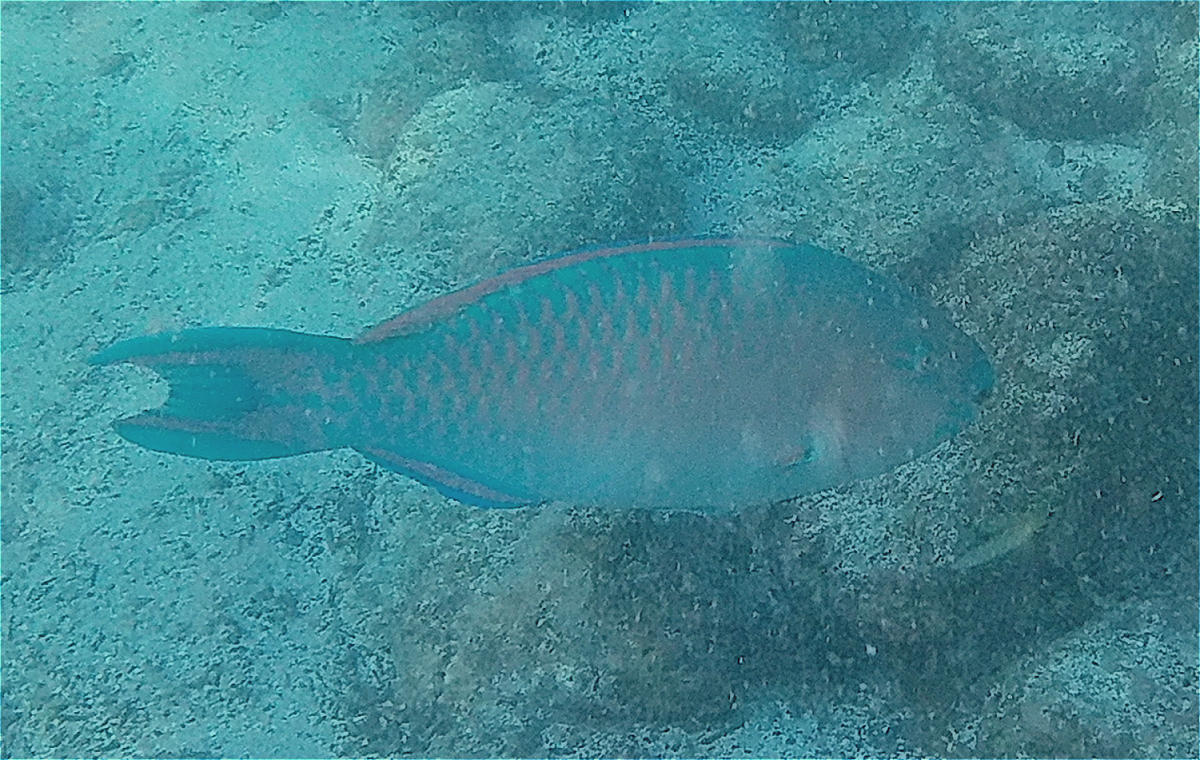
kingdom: Animalia
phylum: Chordata
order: Perciformes
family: Scaridae
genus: Scarus
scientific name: Scarus ghobban
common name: Blue-barred parrotfish
